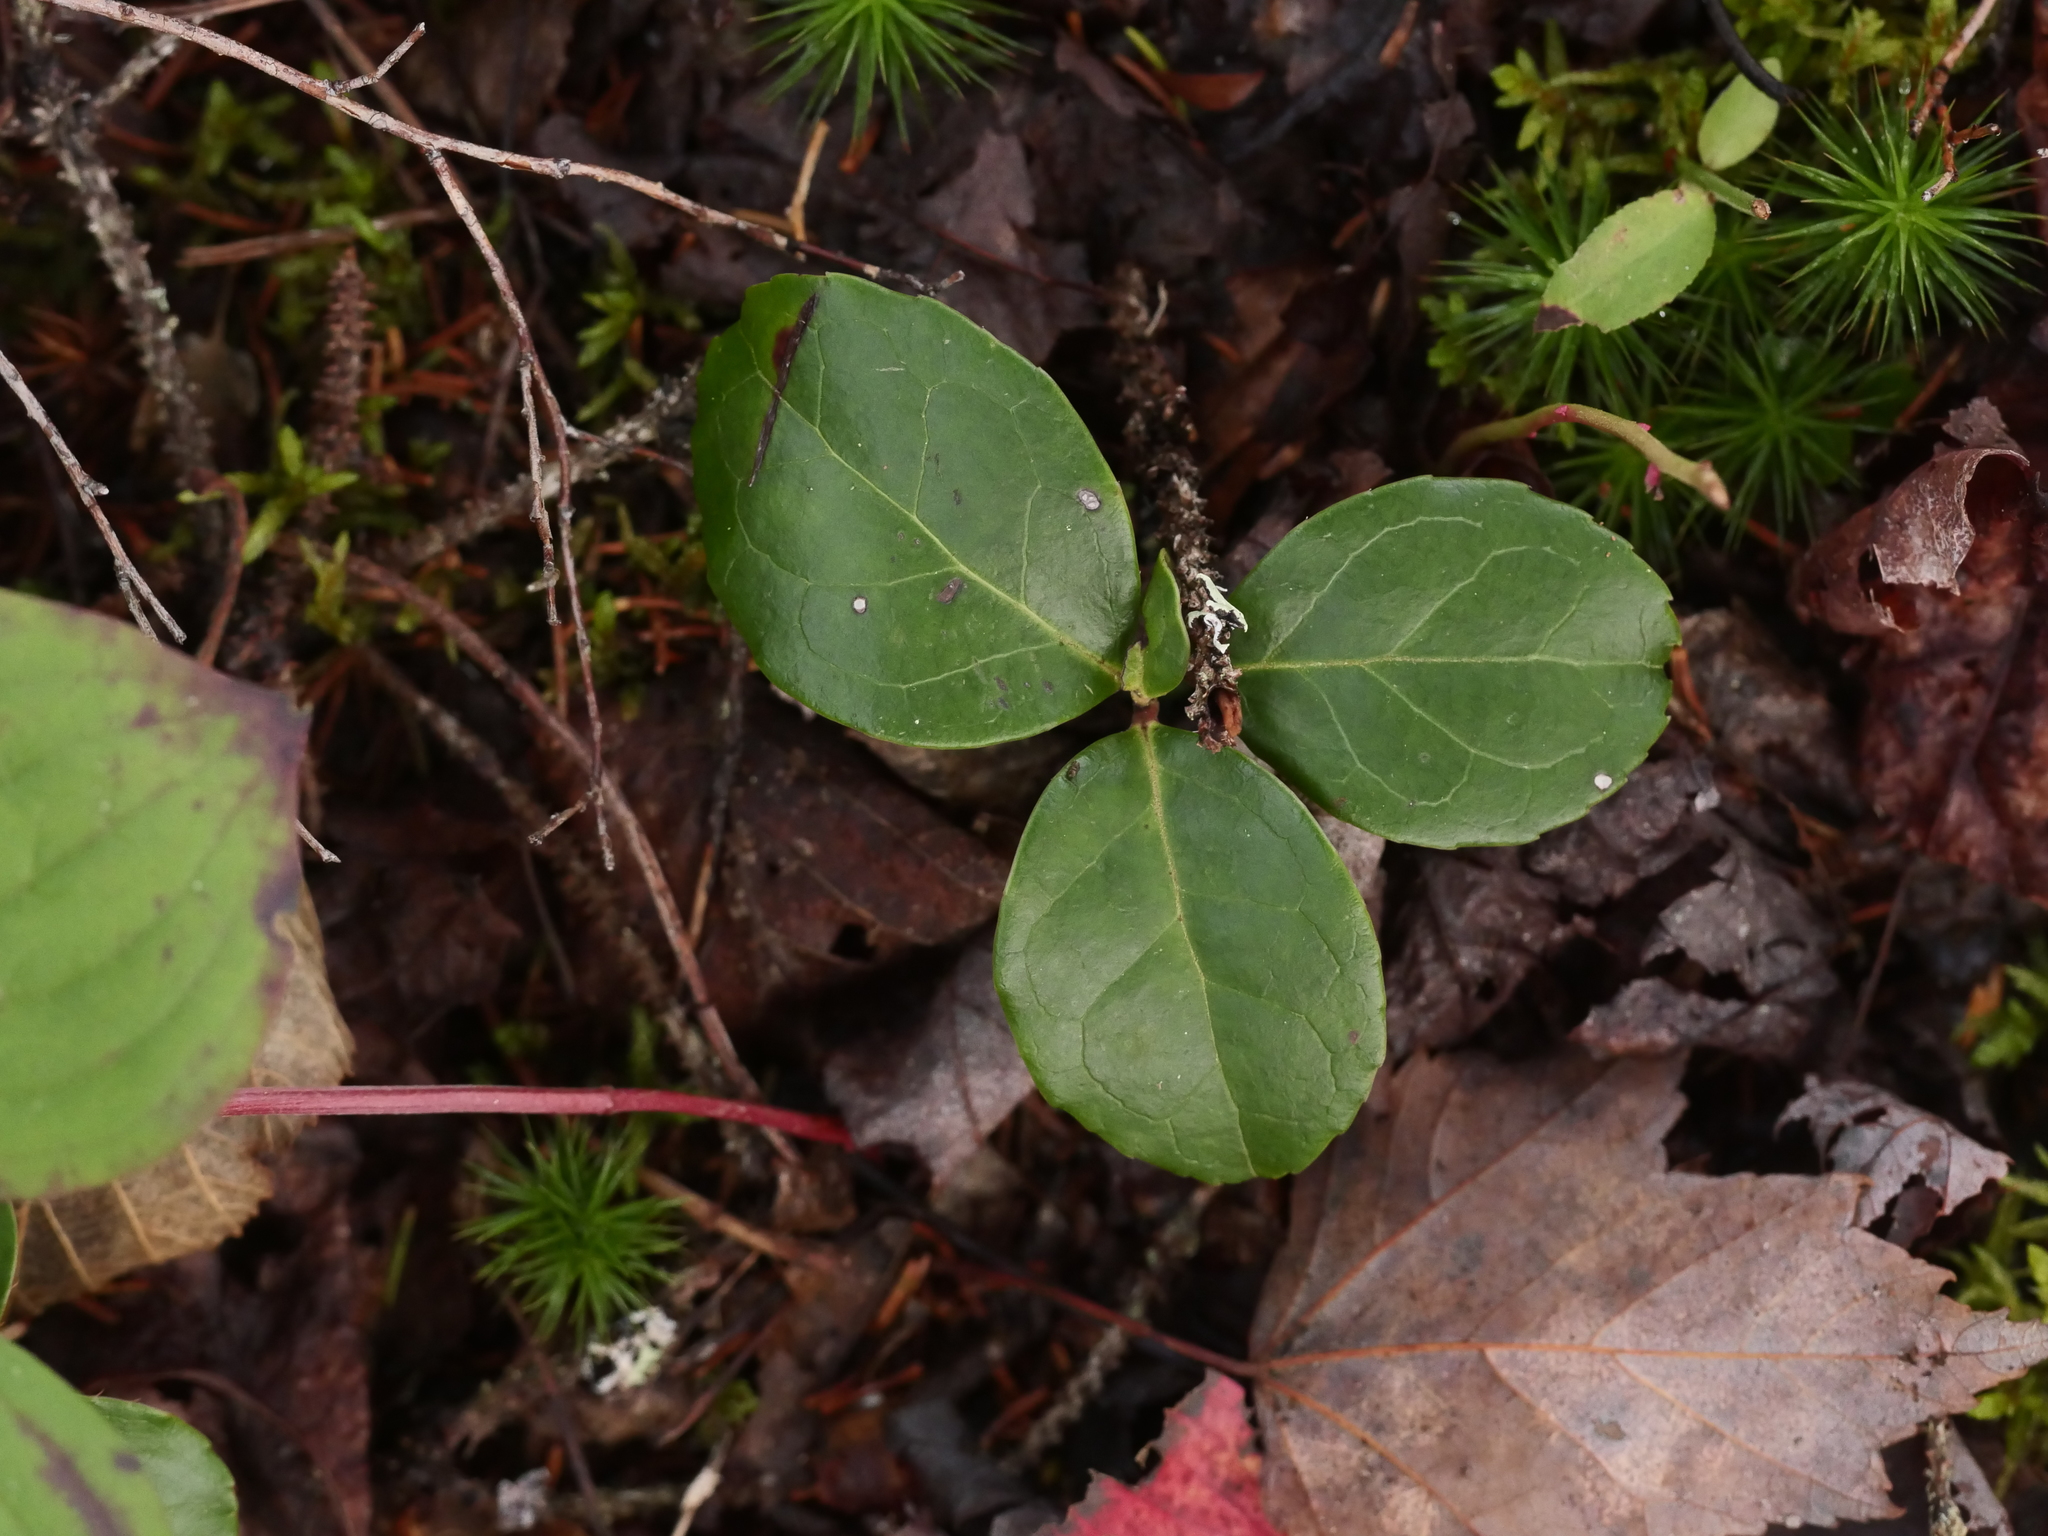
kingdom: Plantae
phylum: Tracheophyta
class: Magnoliopsida
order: Ericales
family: Ericaceae
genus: Gaultheria
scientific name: Gaultheria procumbens
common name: Checkerberry
